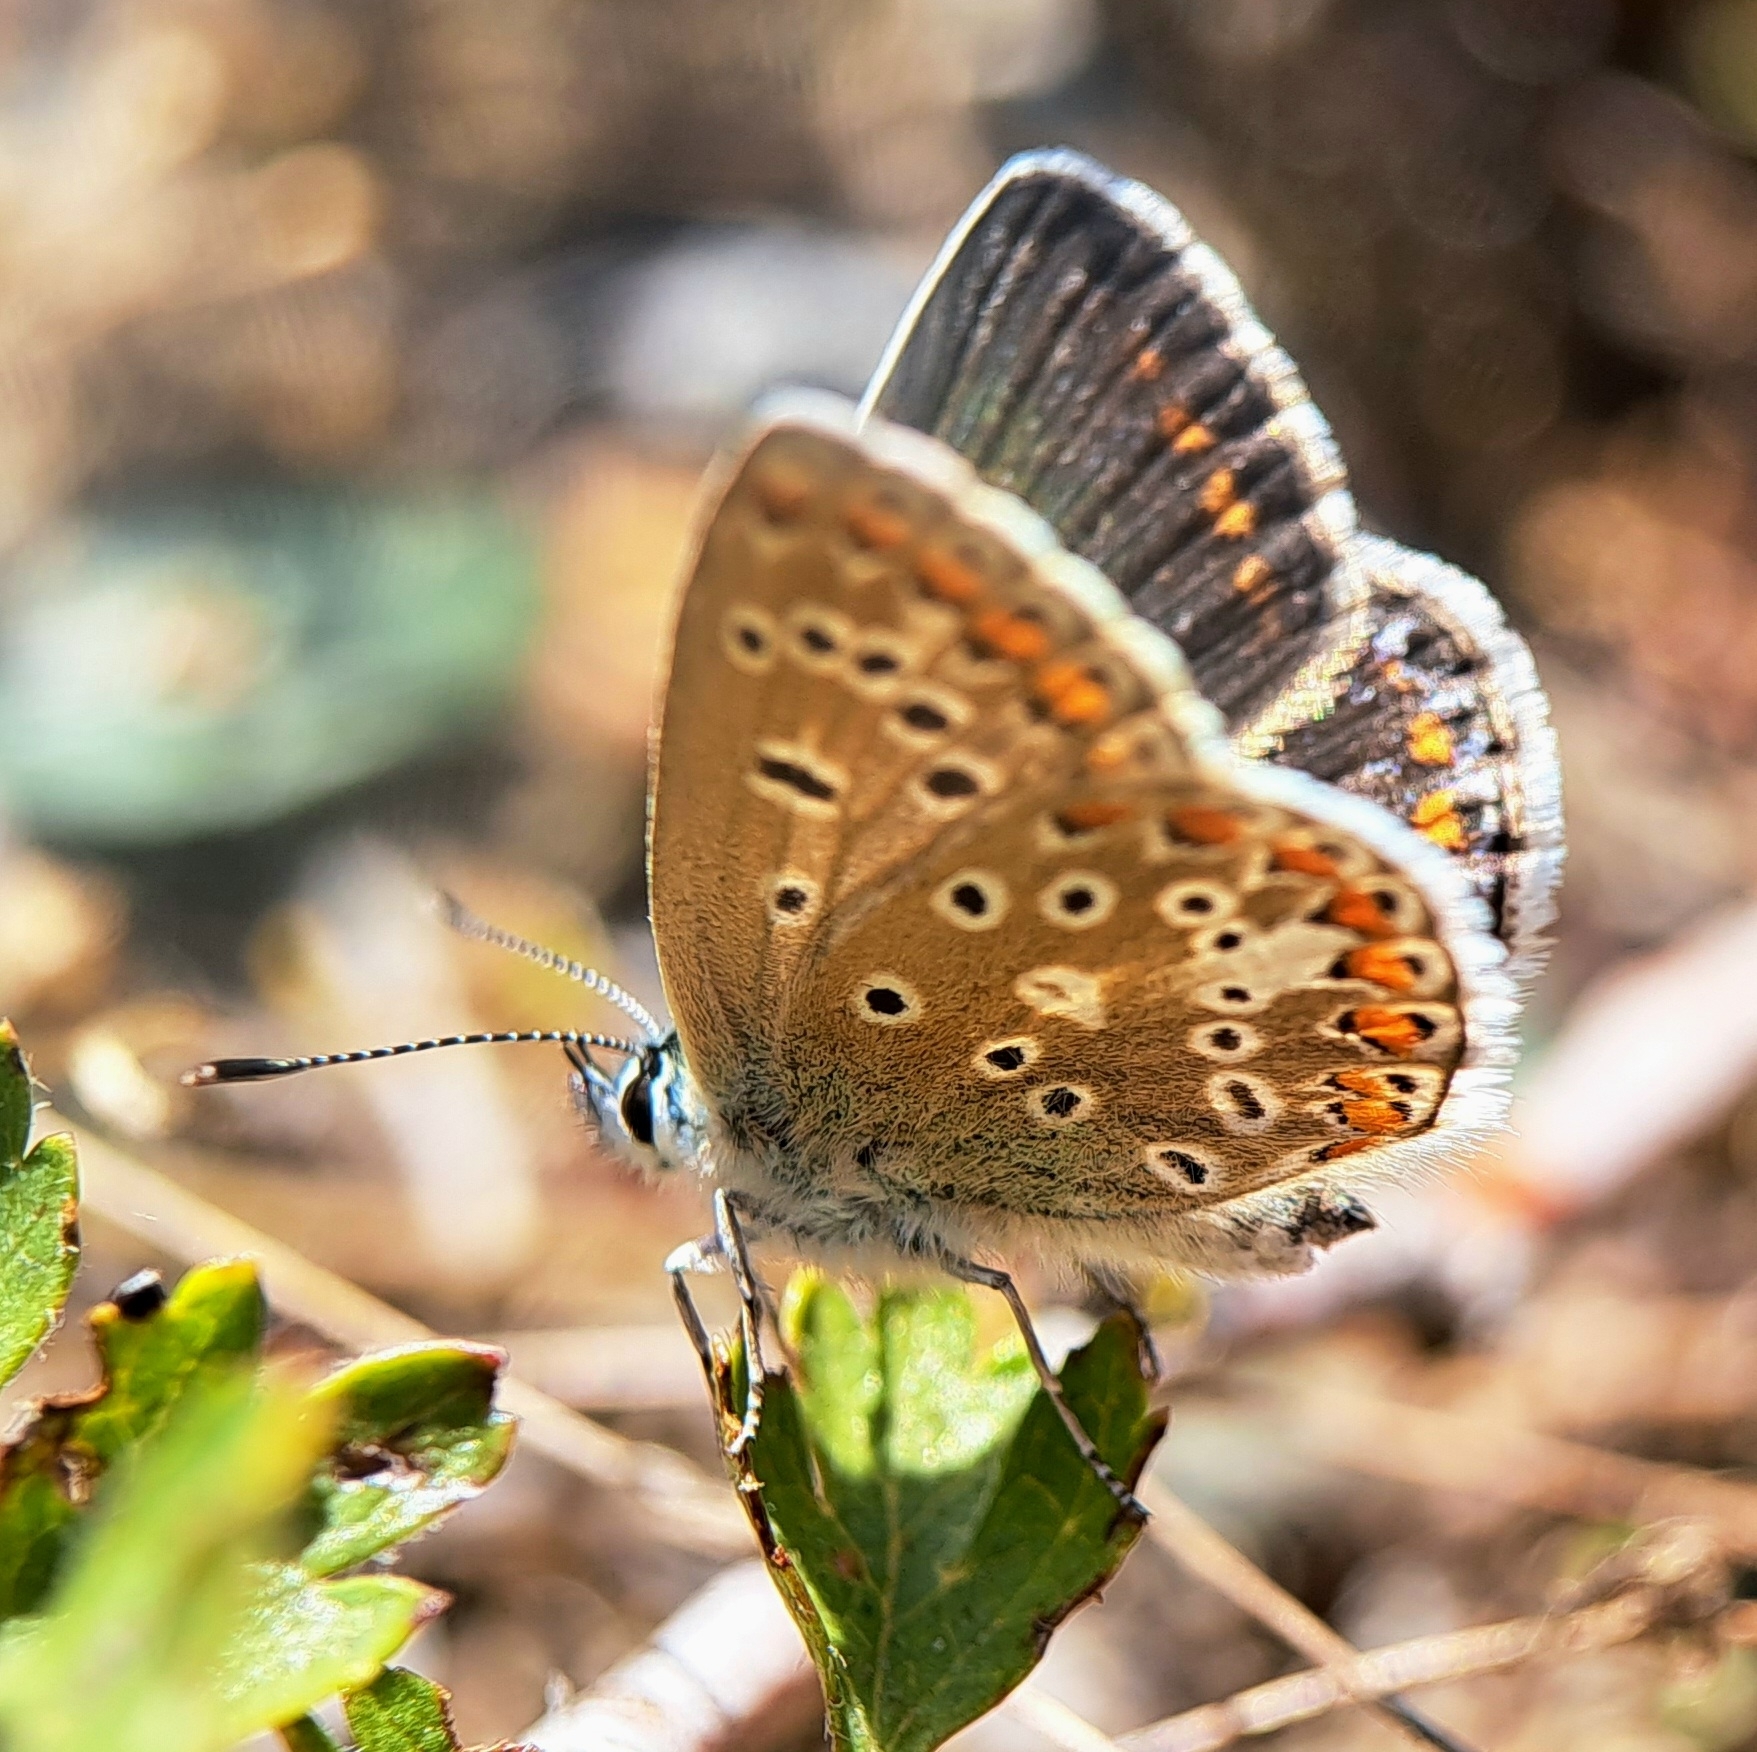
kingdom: Animalia
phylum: Arthropoda
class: Insecta
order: Lepidoptera
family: Lycaenidae
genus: Polyommatus
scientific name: Polyommatus icarus
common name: Common blue
